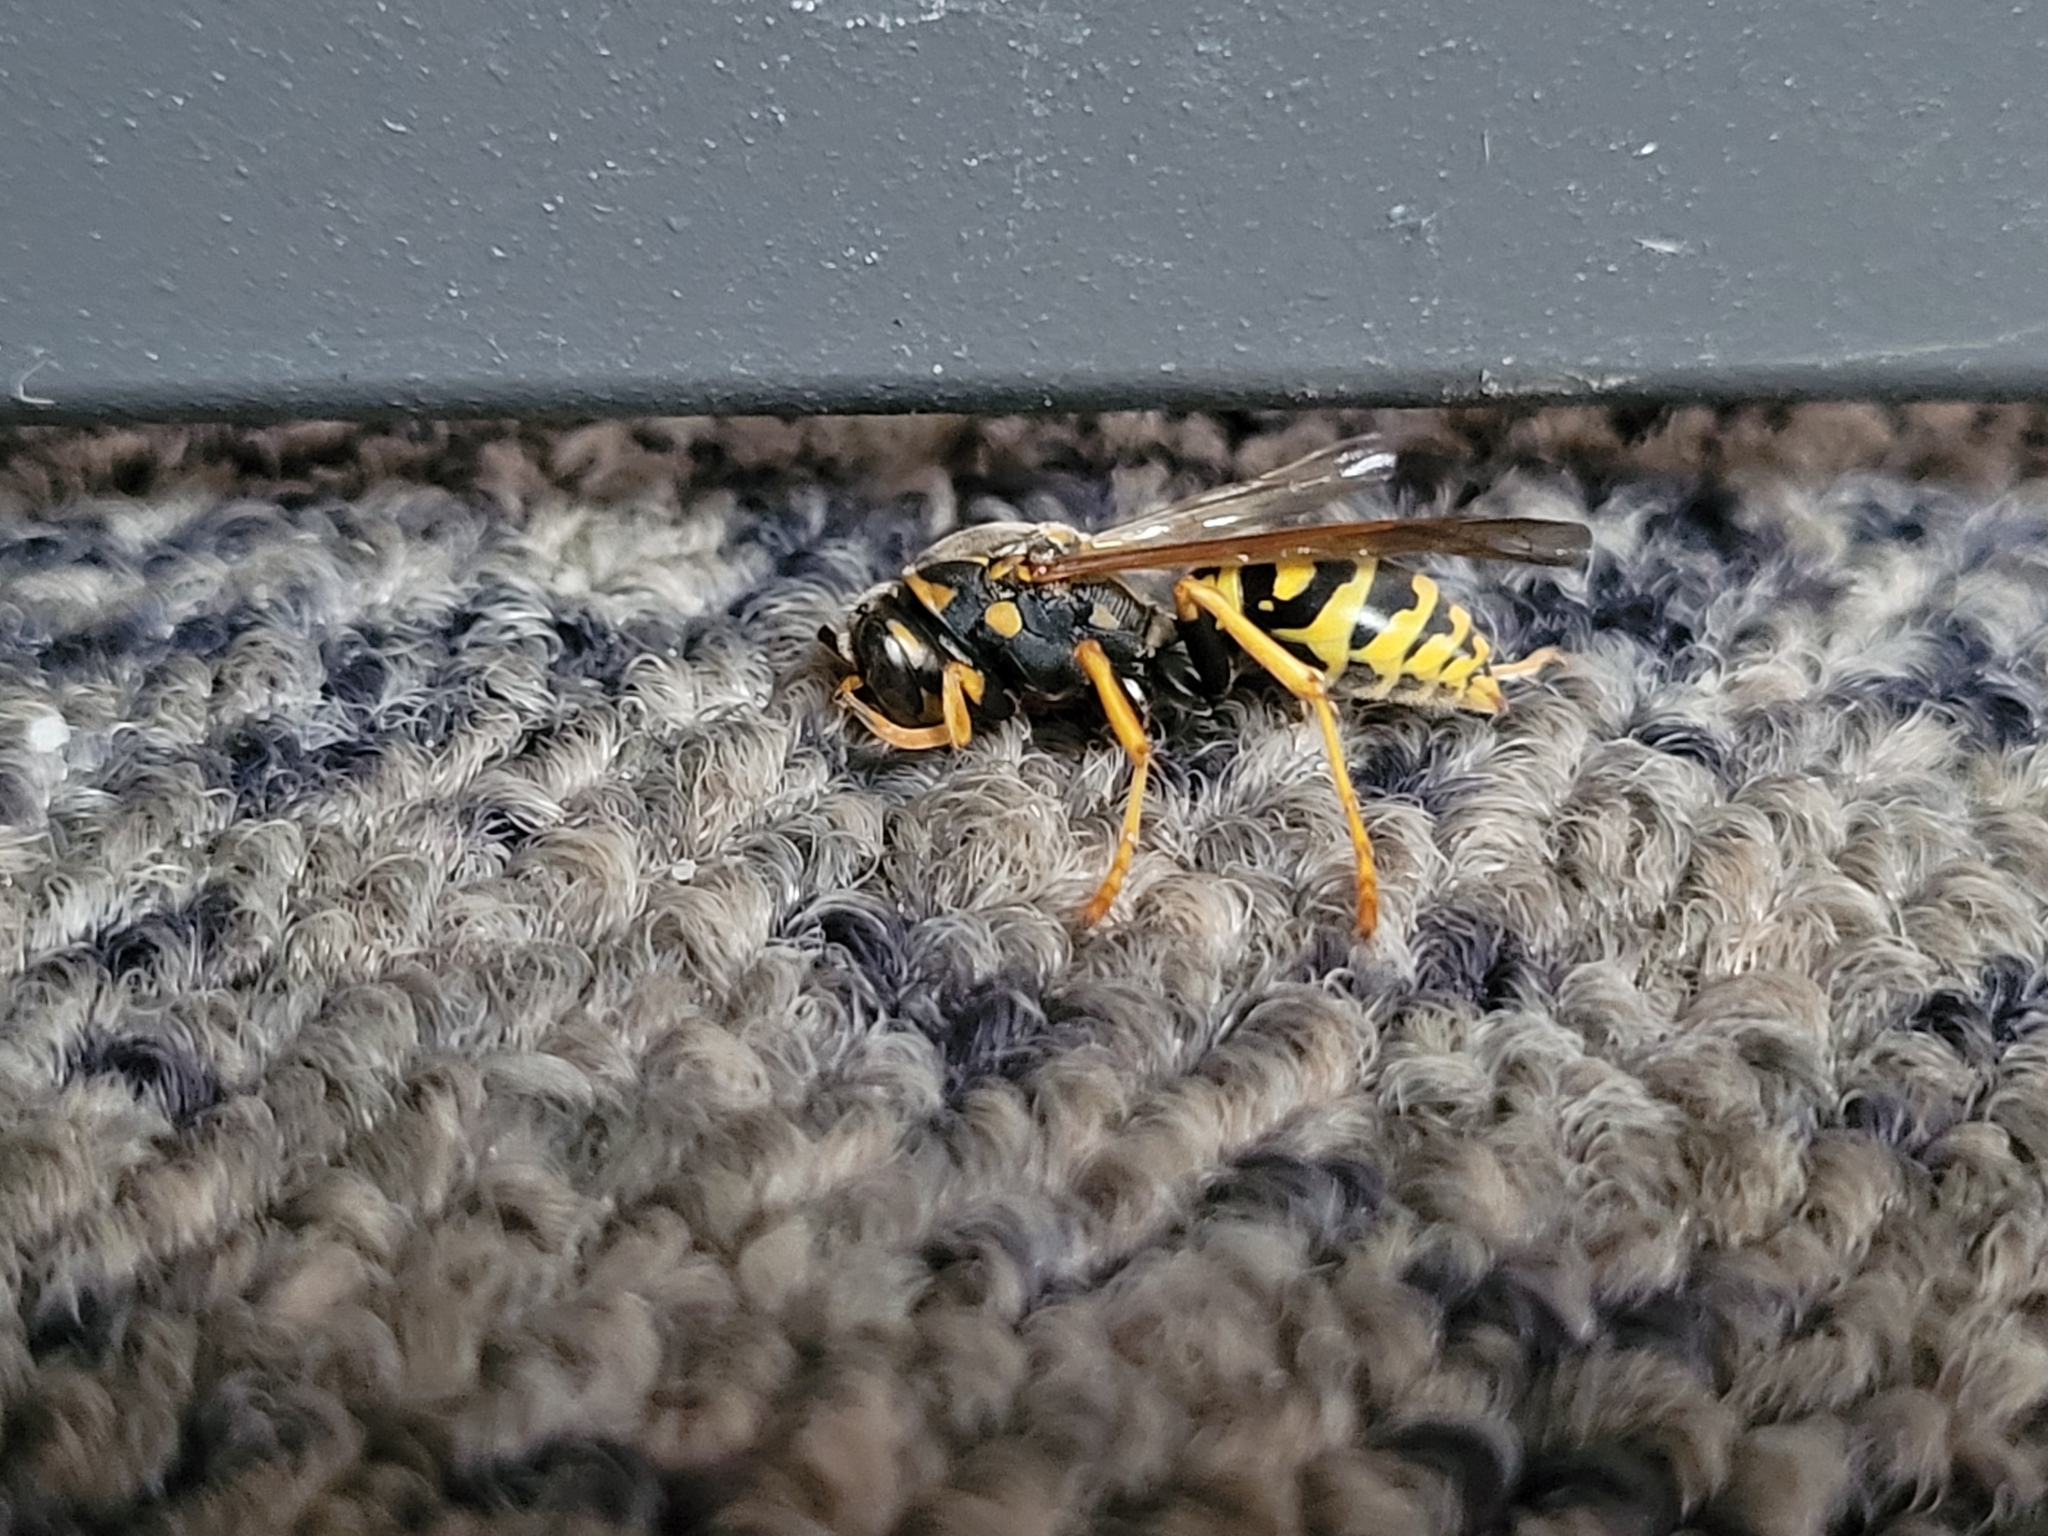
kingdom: Animalia
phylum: Arthropoda
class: Insecta
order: Hymenoptera
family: Eumenidae
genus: Polistes
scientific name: Polistes dominula
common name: Paper wasp
